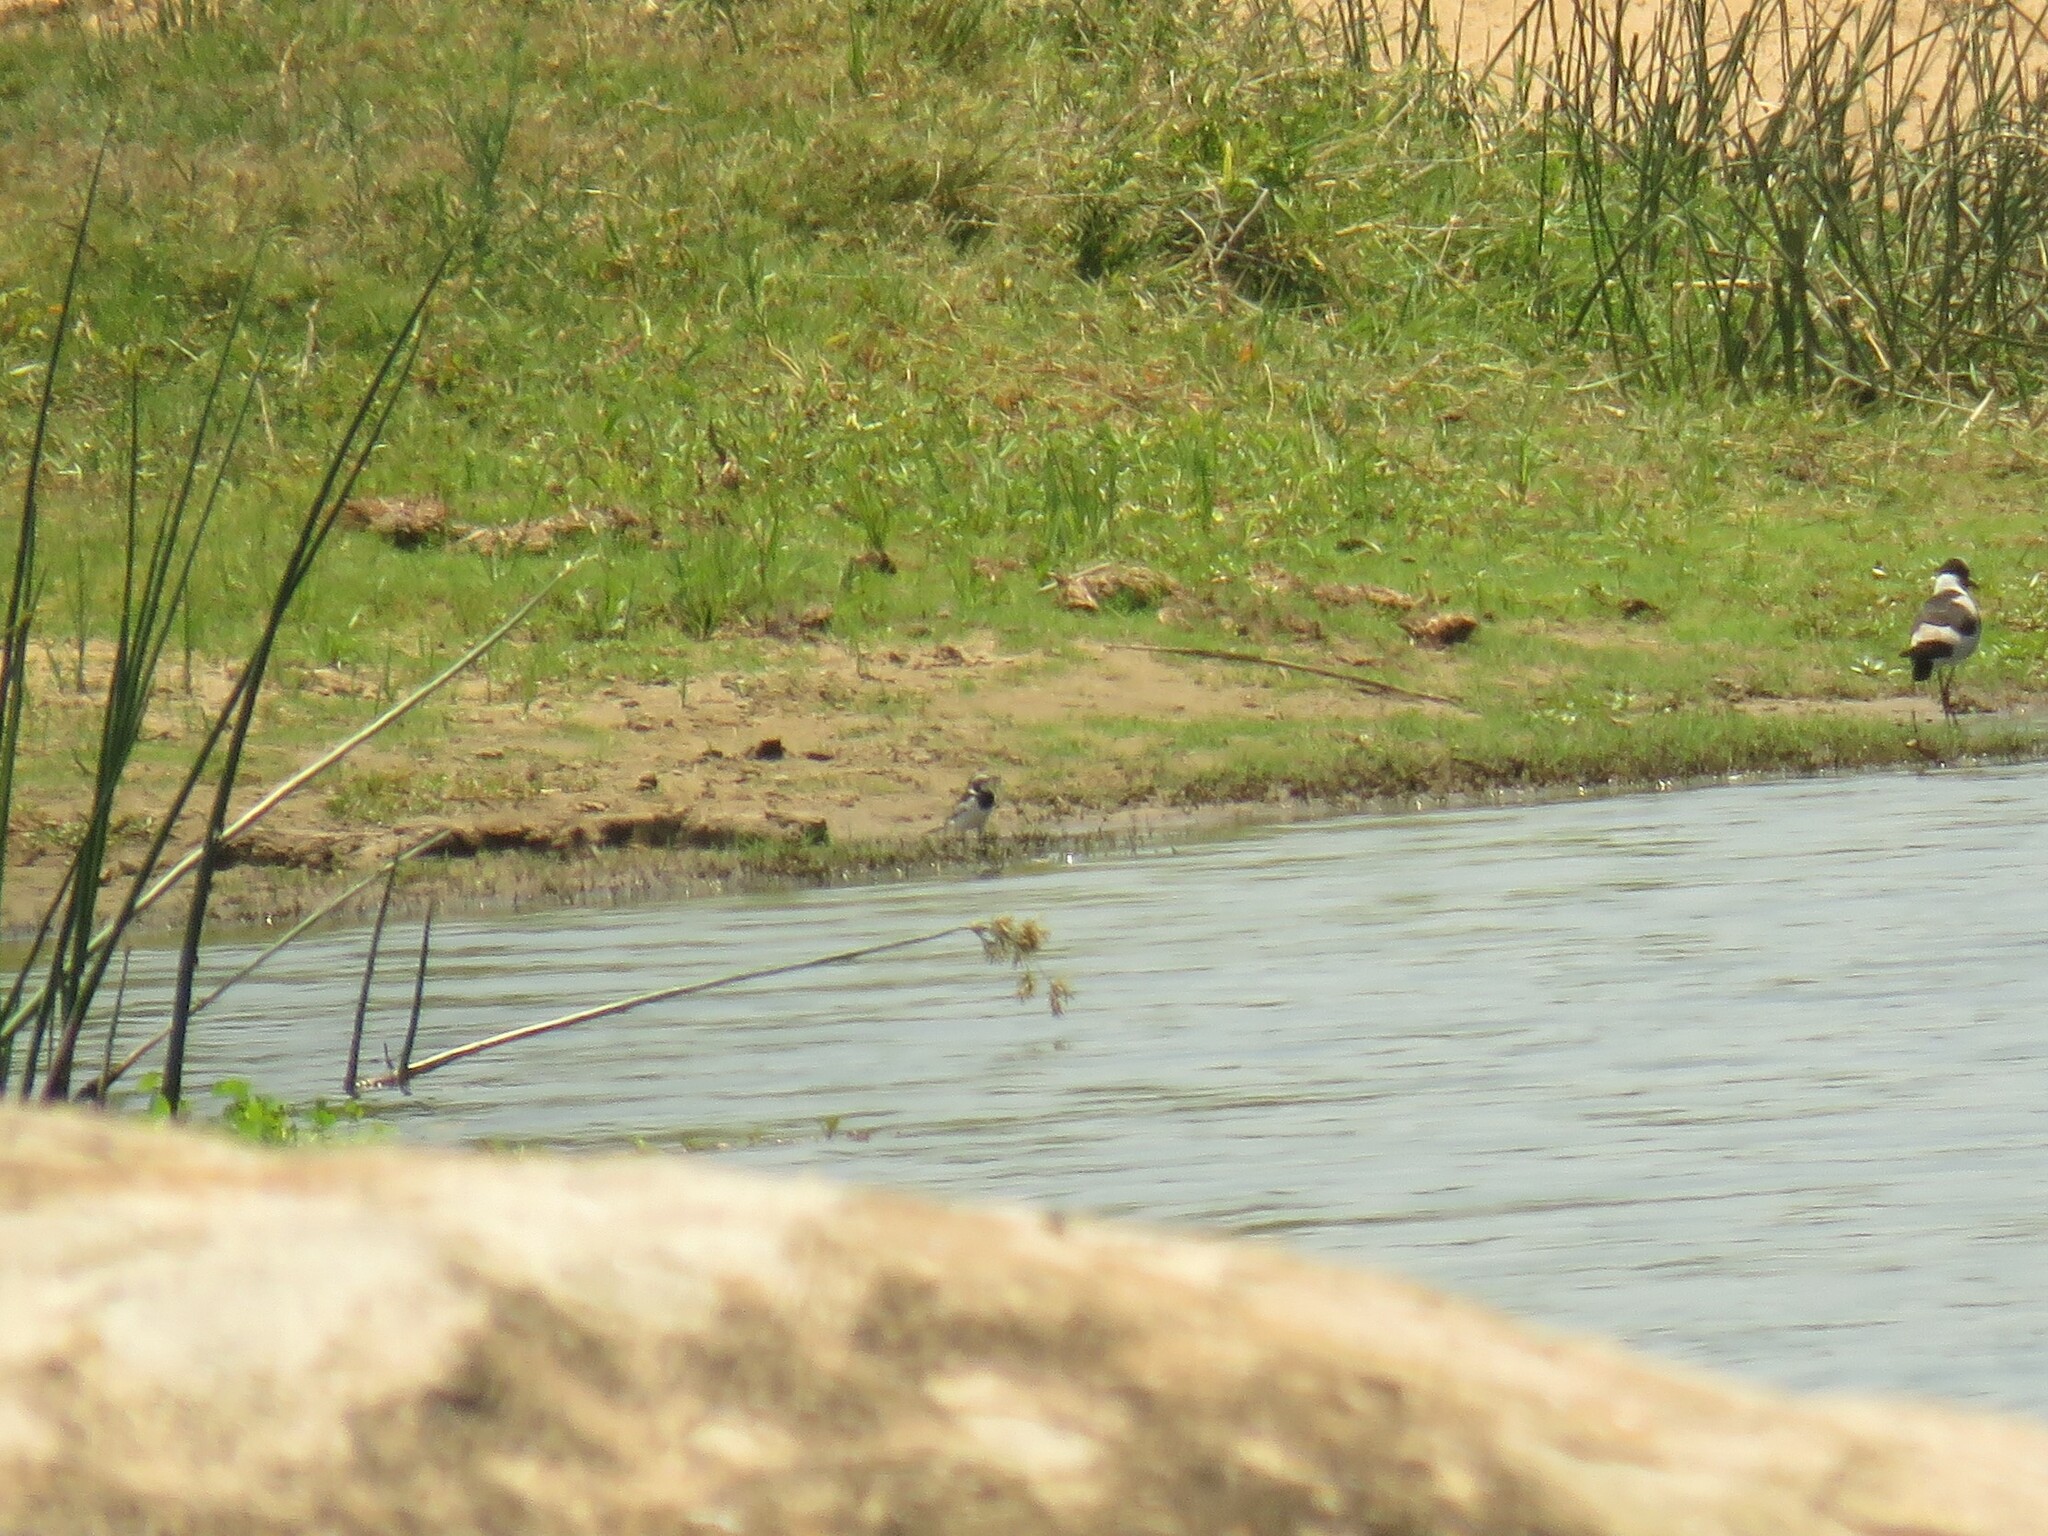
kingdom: Animalia
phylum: Chordata
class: Aves
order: Passeriformes
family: Motacillidae
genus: Motacilla
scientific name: Motacilla aguimp
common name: African pied wagtail
